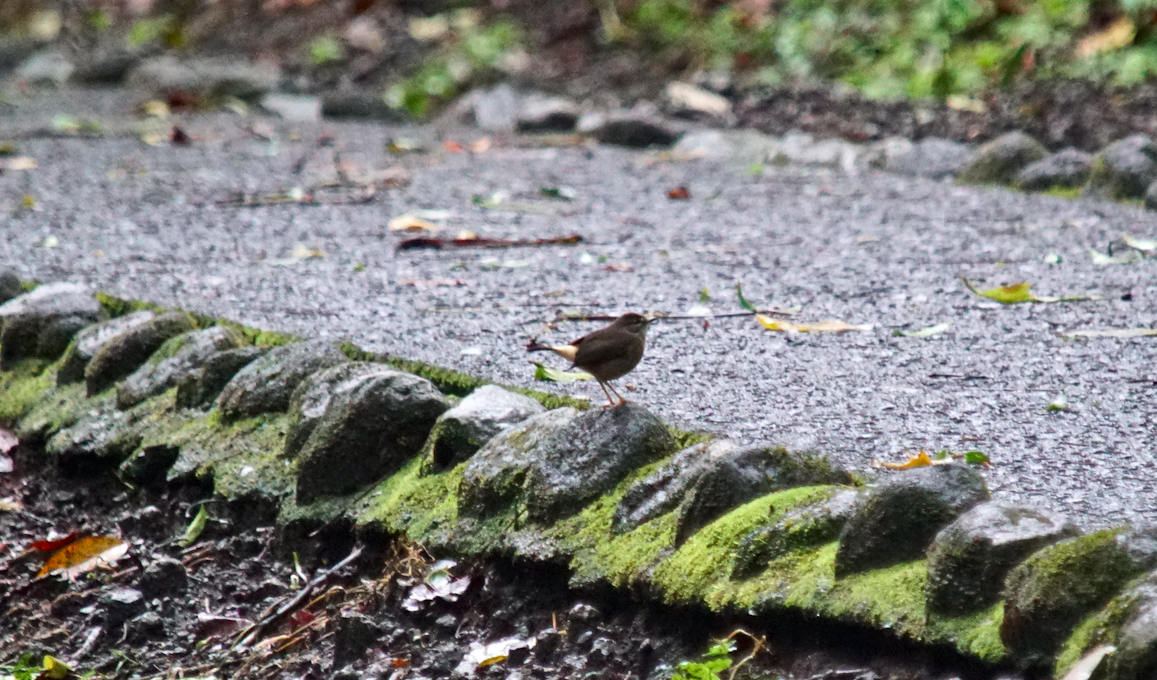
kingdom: Animalia
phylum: Chordata
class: Aves
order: Passeriformes
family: Parulidae
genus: Myiothlypis
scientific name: Myiothlypis fulvicauda
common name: Buff-rumped warbler
